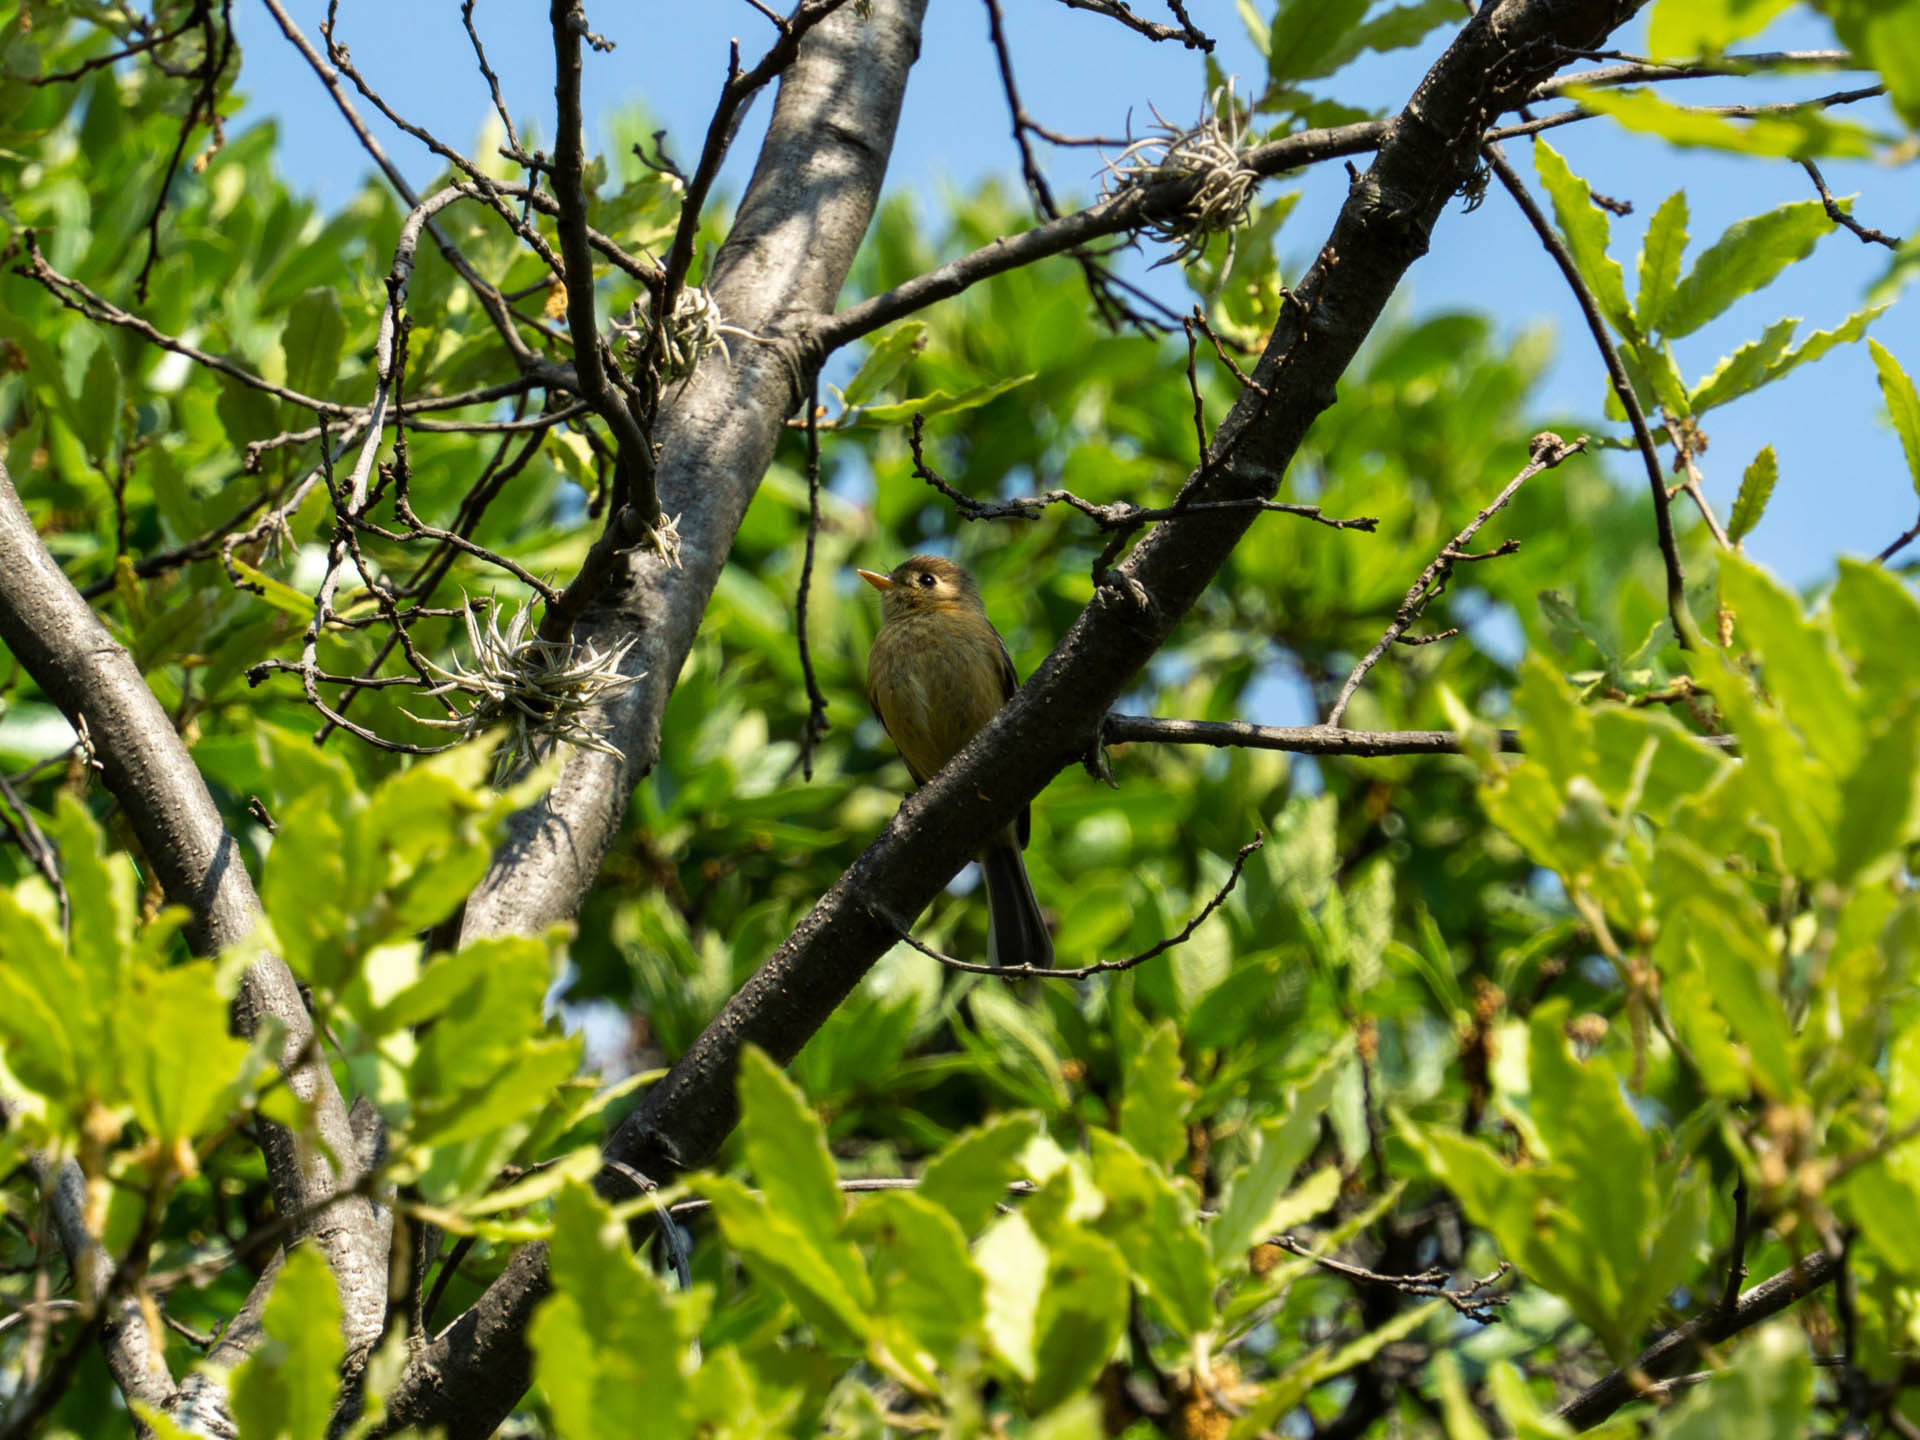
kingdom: Animalia
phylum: Chordata
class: Aves
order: Passeriformes
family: Tyrannidae
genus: Empidonax
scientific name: Empidonax difficilis
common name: Pacific-slope flycatcher
